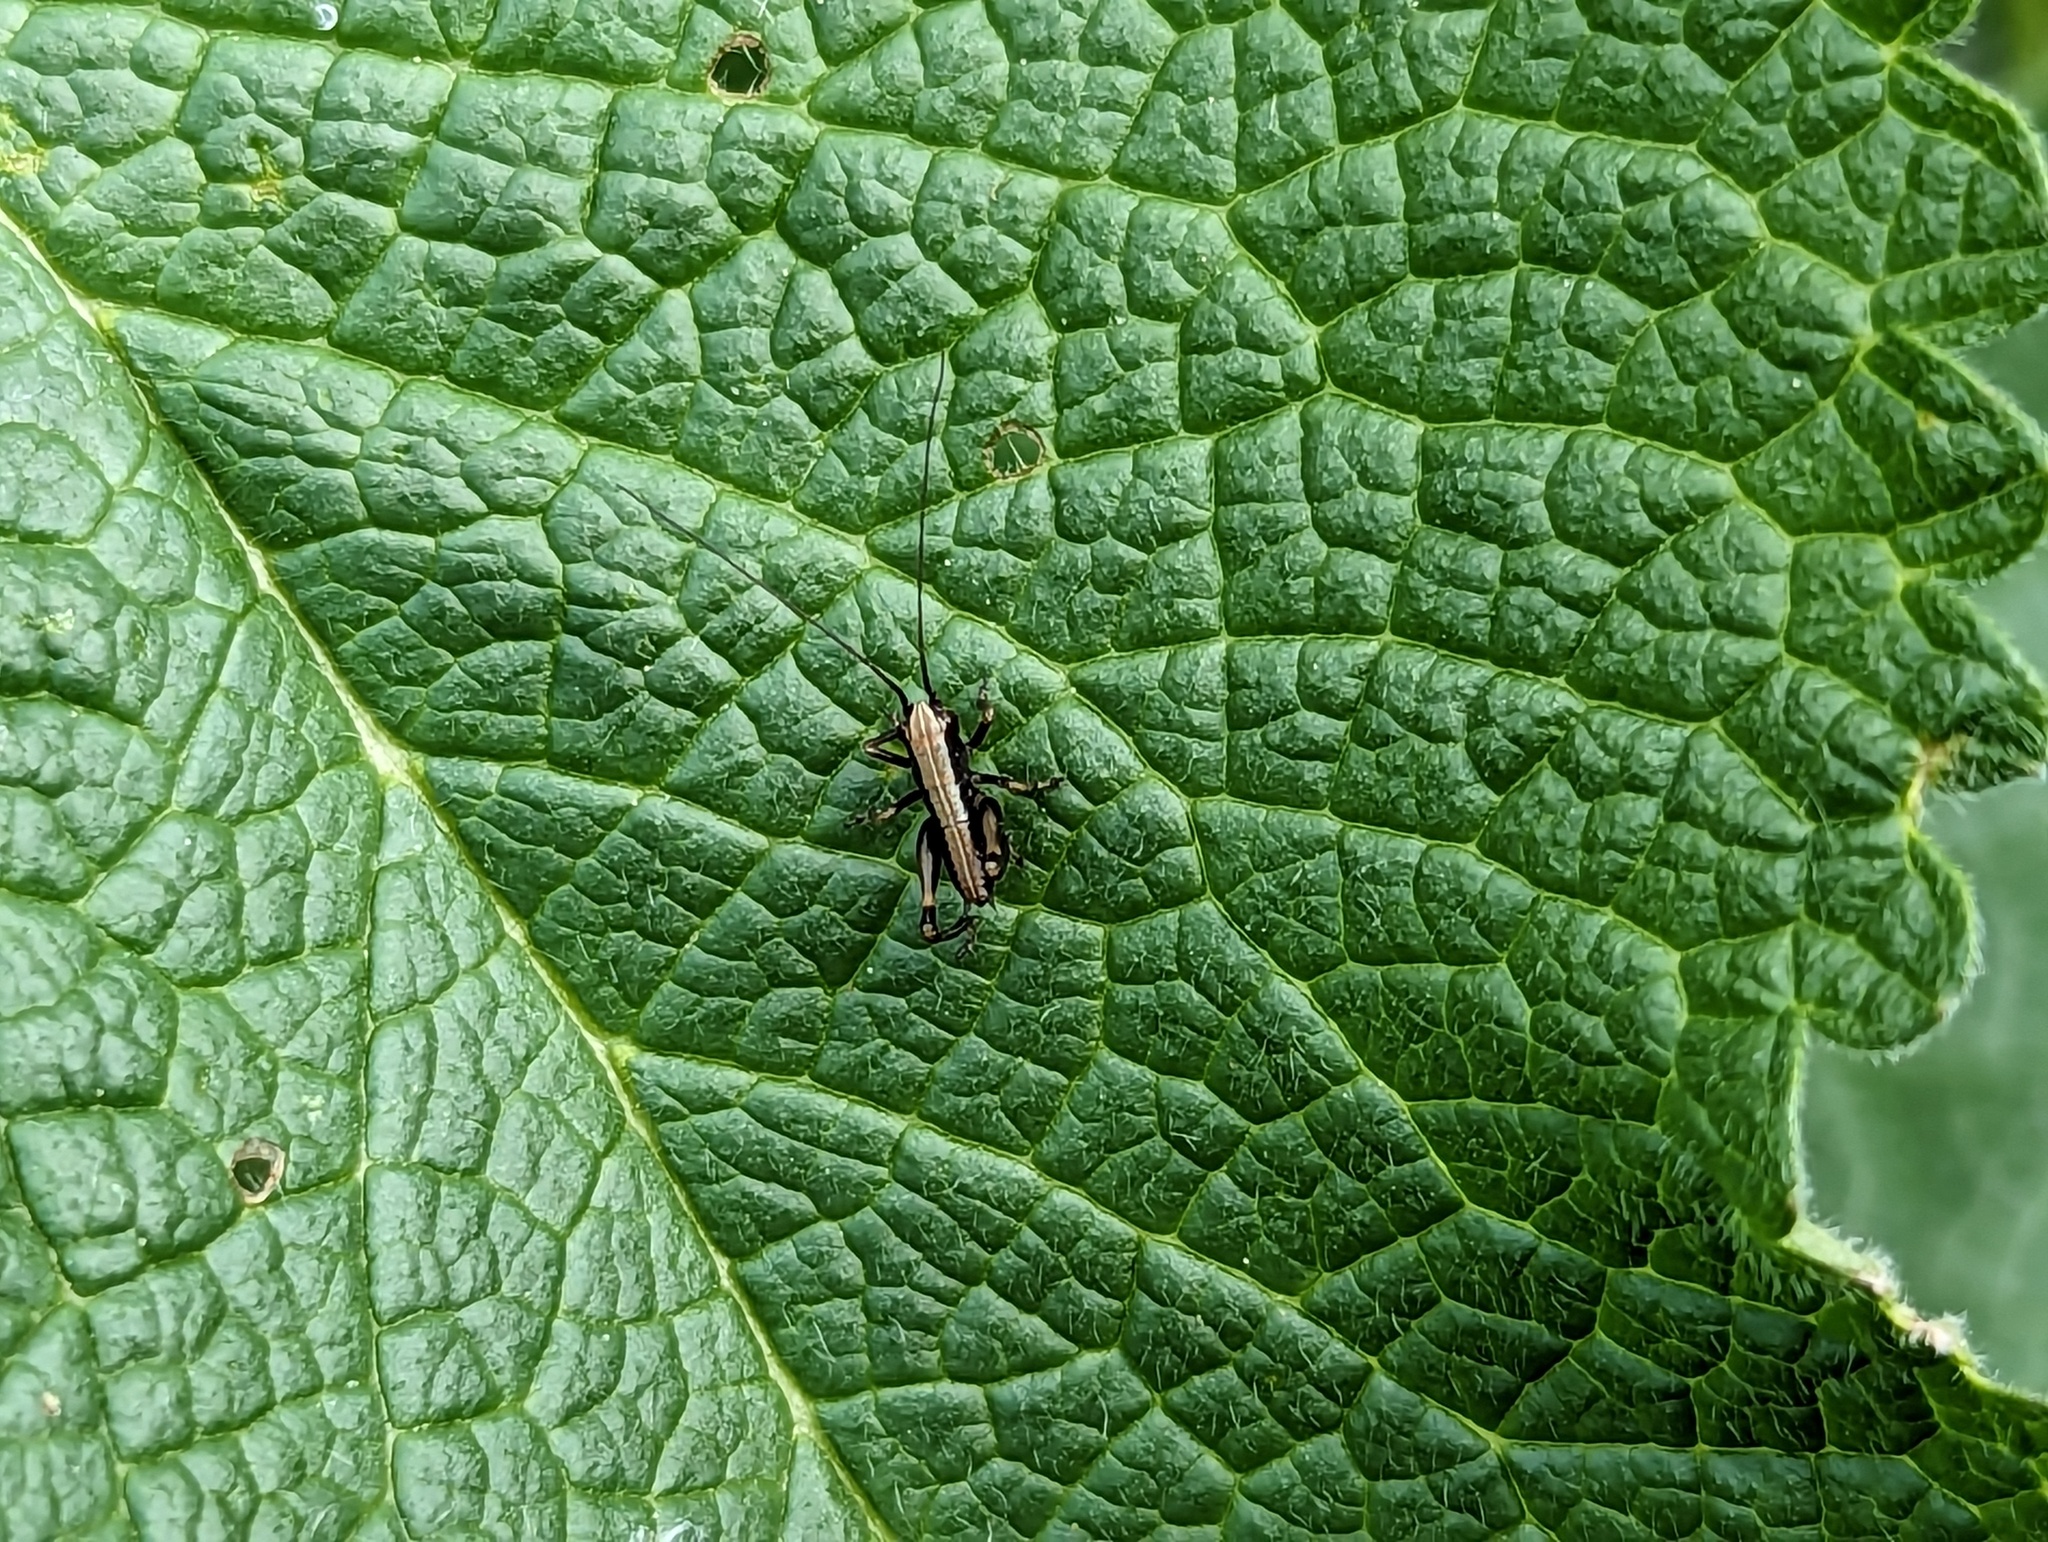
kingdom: Animalia
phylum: Arthropoda
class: Insecta
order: Orthoptera
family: Tettigoniidae
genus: Pholidoptera
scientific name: Pholidoptera griseoaptera
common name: Dark bush-cricket
